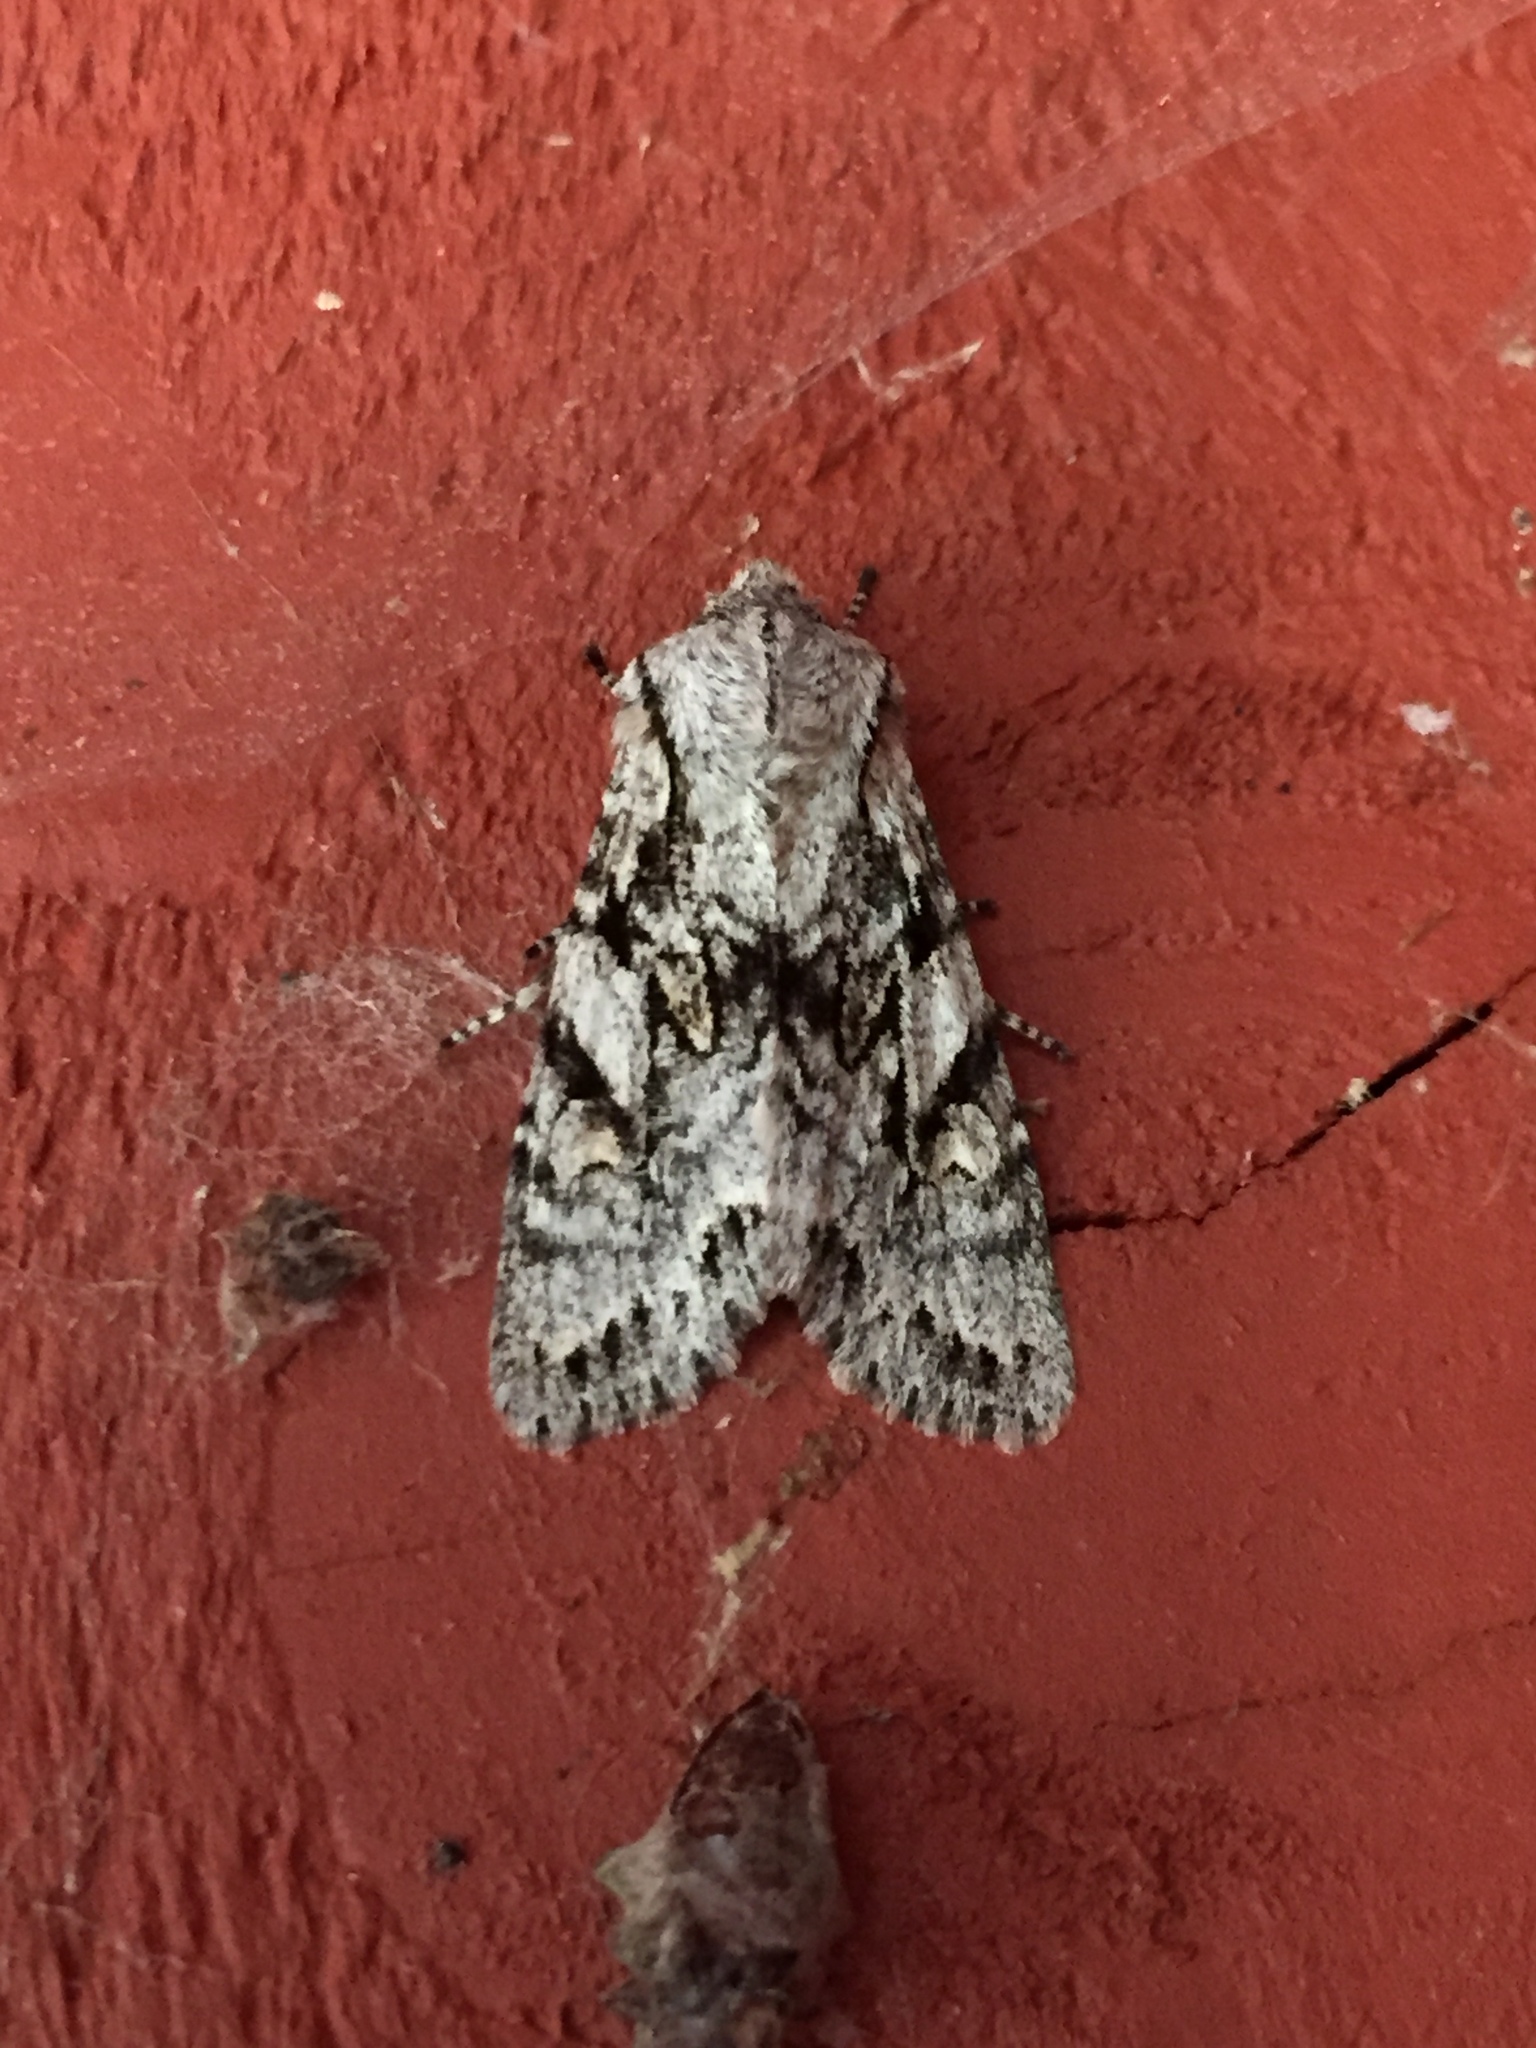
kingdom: Animalia
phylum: Arthropoda
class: Insecta
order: Lepidoptera
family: Noctuidae
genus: Egira
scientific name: Egira simplex
